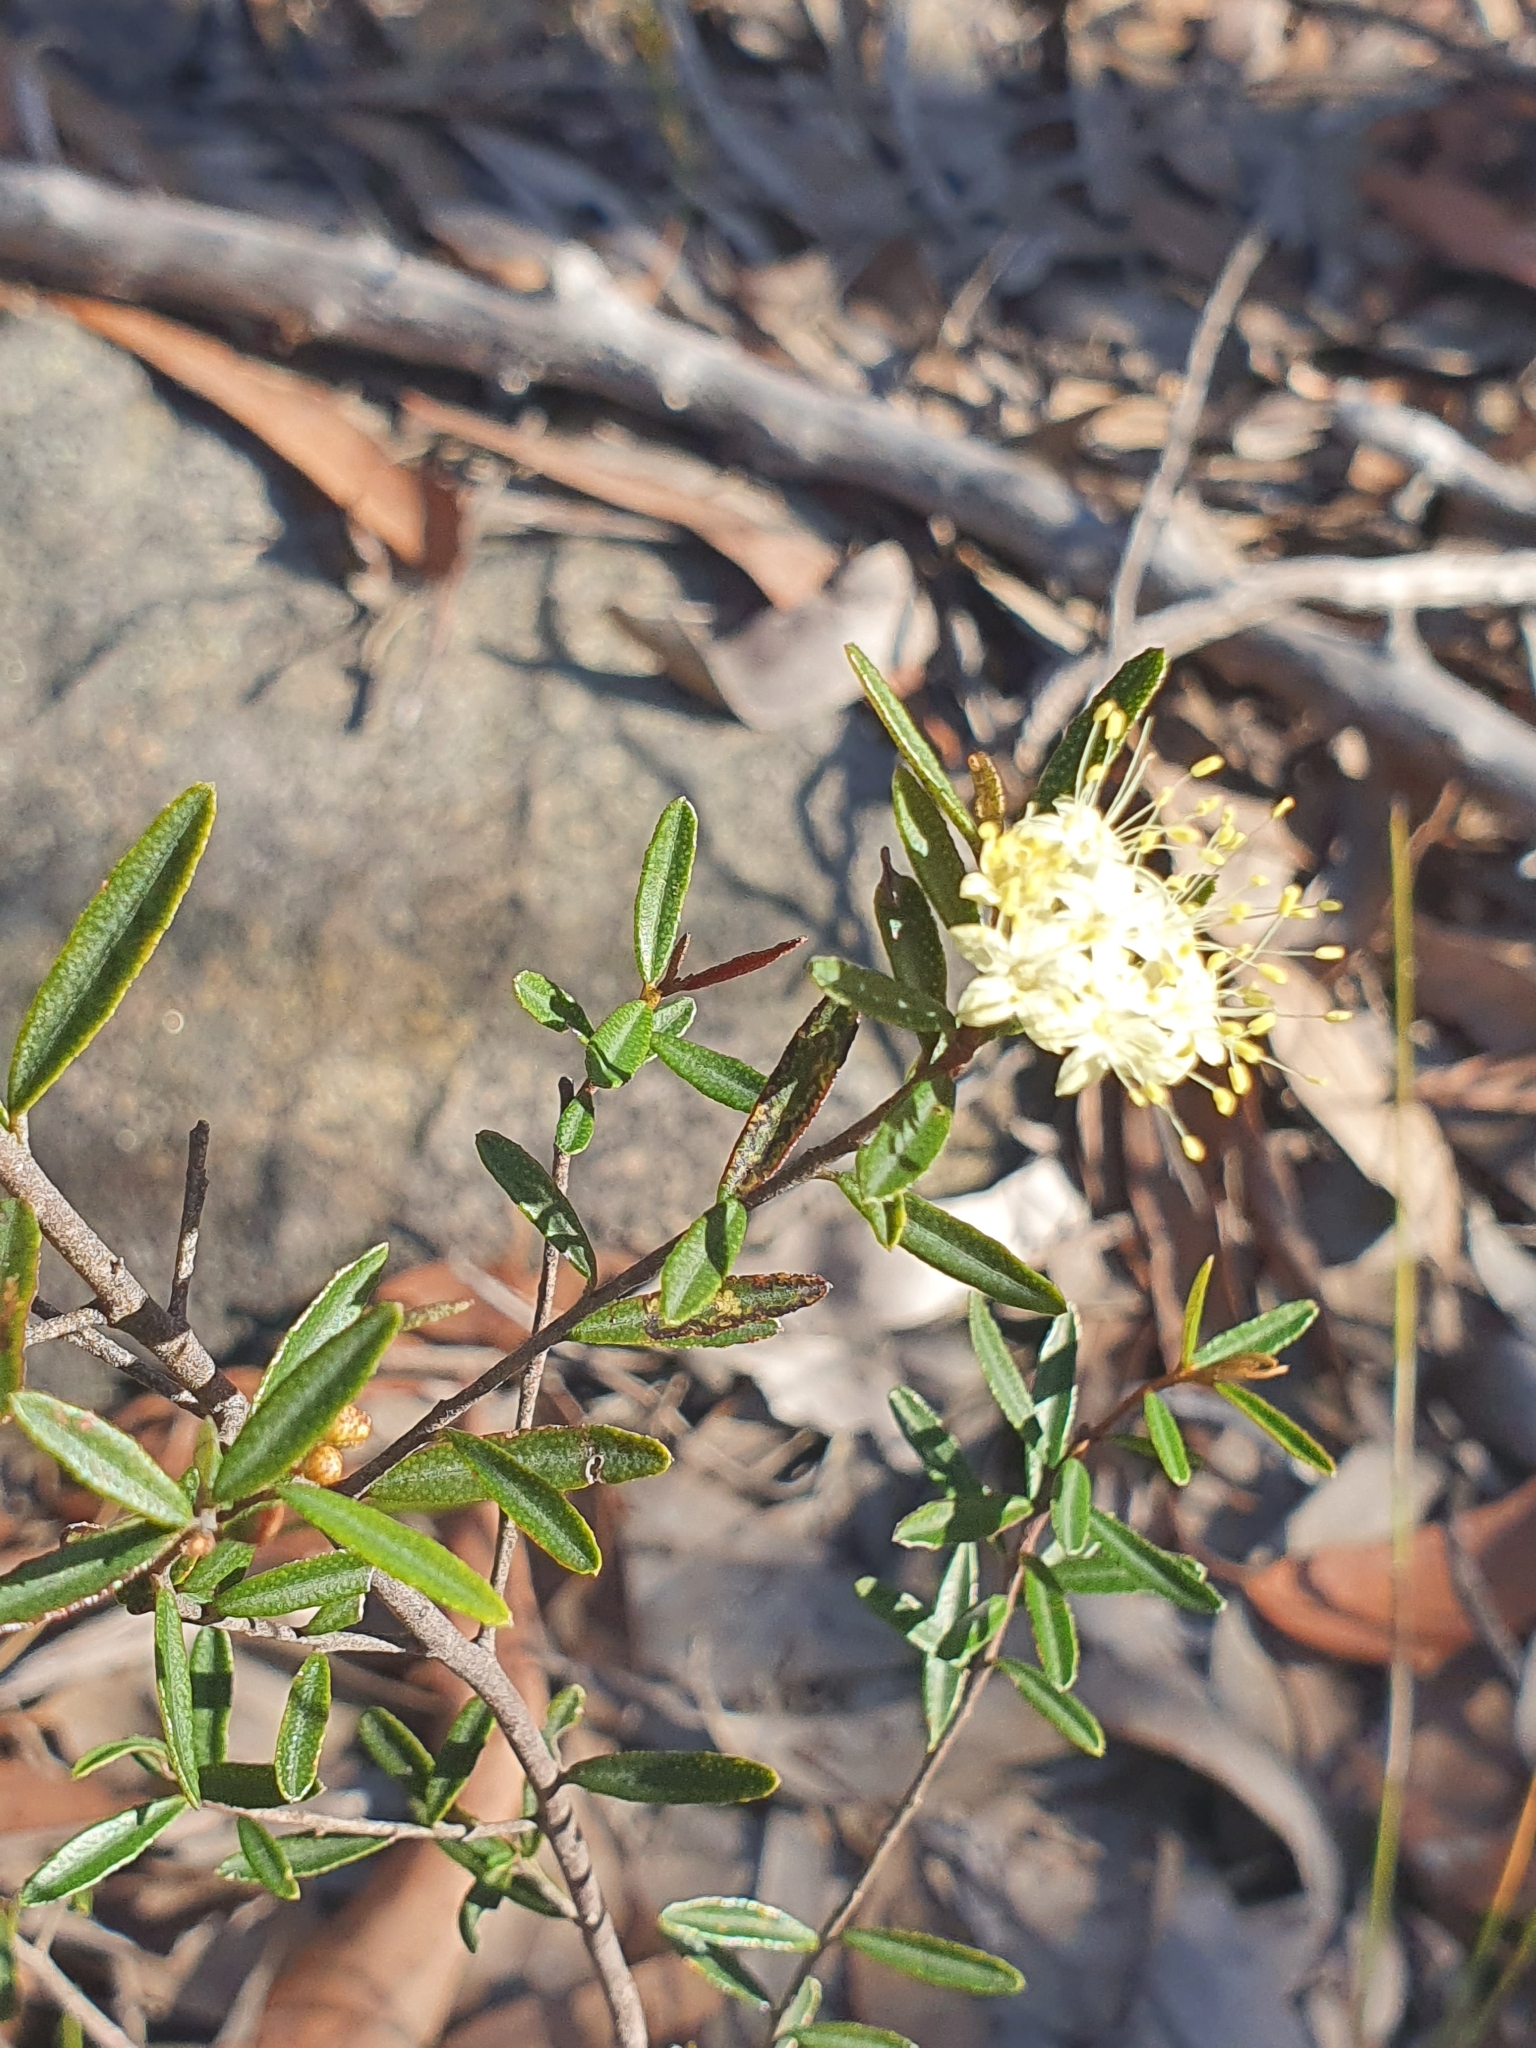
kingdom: Plantae
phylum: Tracheophyta
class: Magnoliopsida
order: Sapindales
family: Rutaceae
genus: Phebalium
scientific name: Phebalium squamulosum
